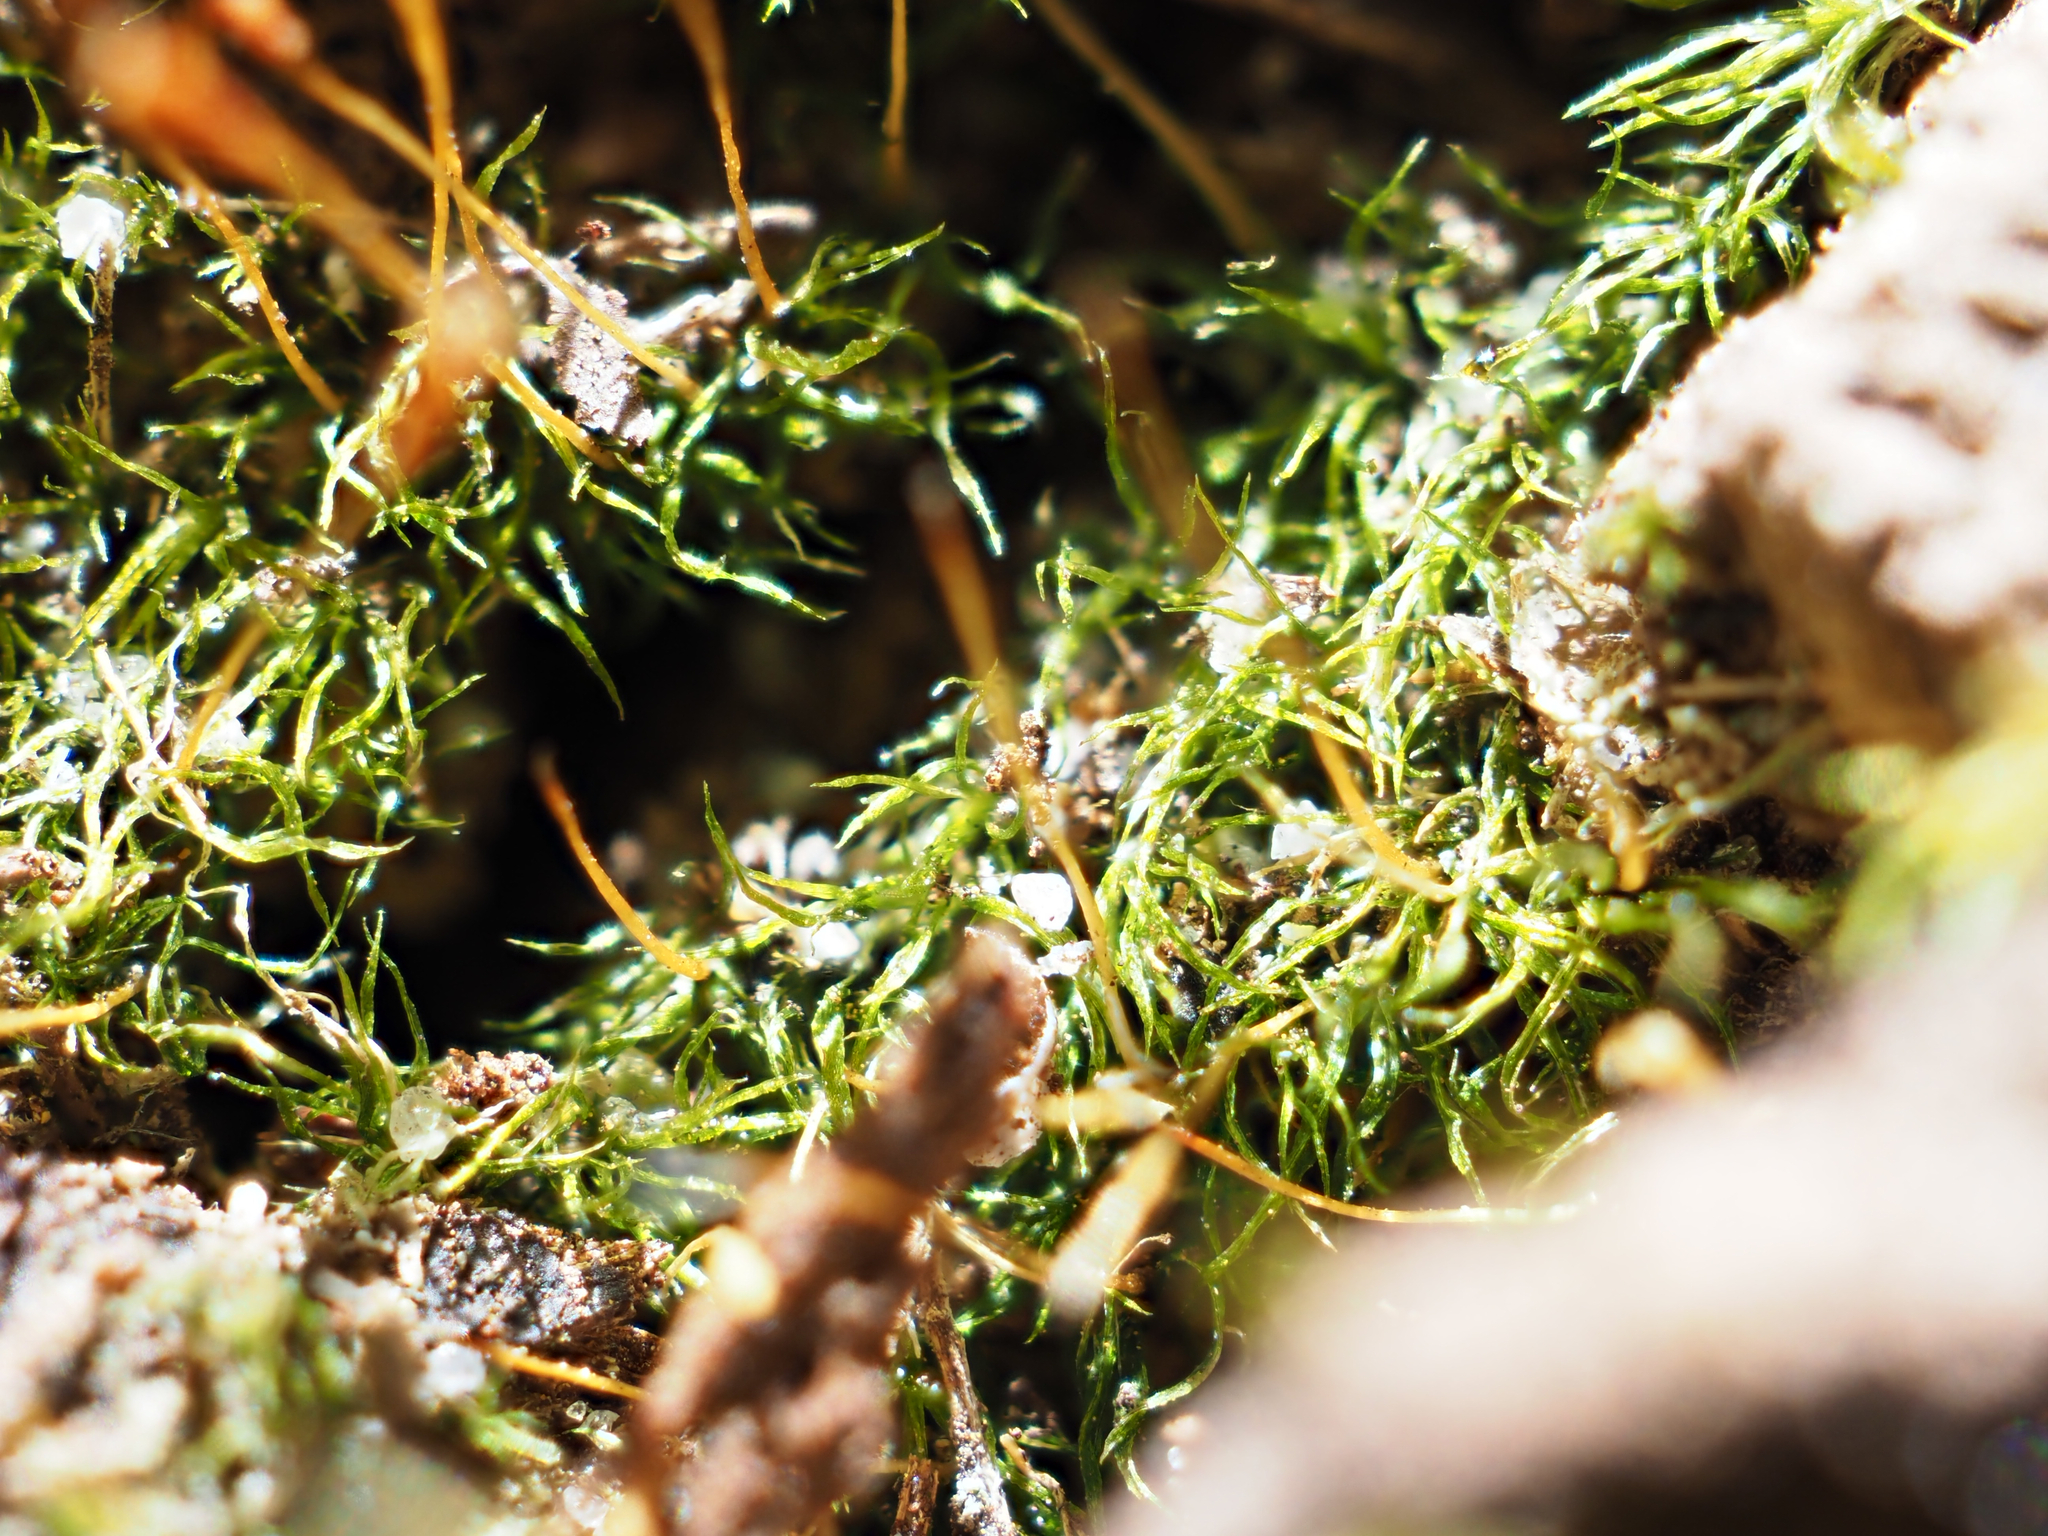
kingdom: Plantae
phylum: Bryophyta
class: Bryopsida
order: Orthodontiales
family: Orthodontiaceae
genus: Orthodontium
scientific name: Orthodontium lineare
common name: Cape thread-moss
